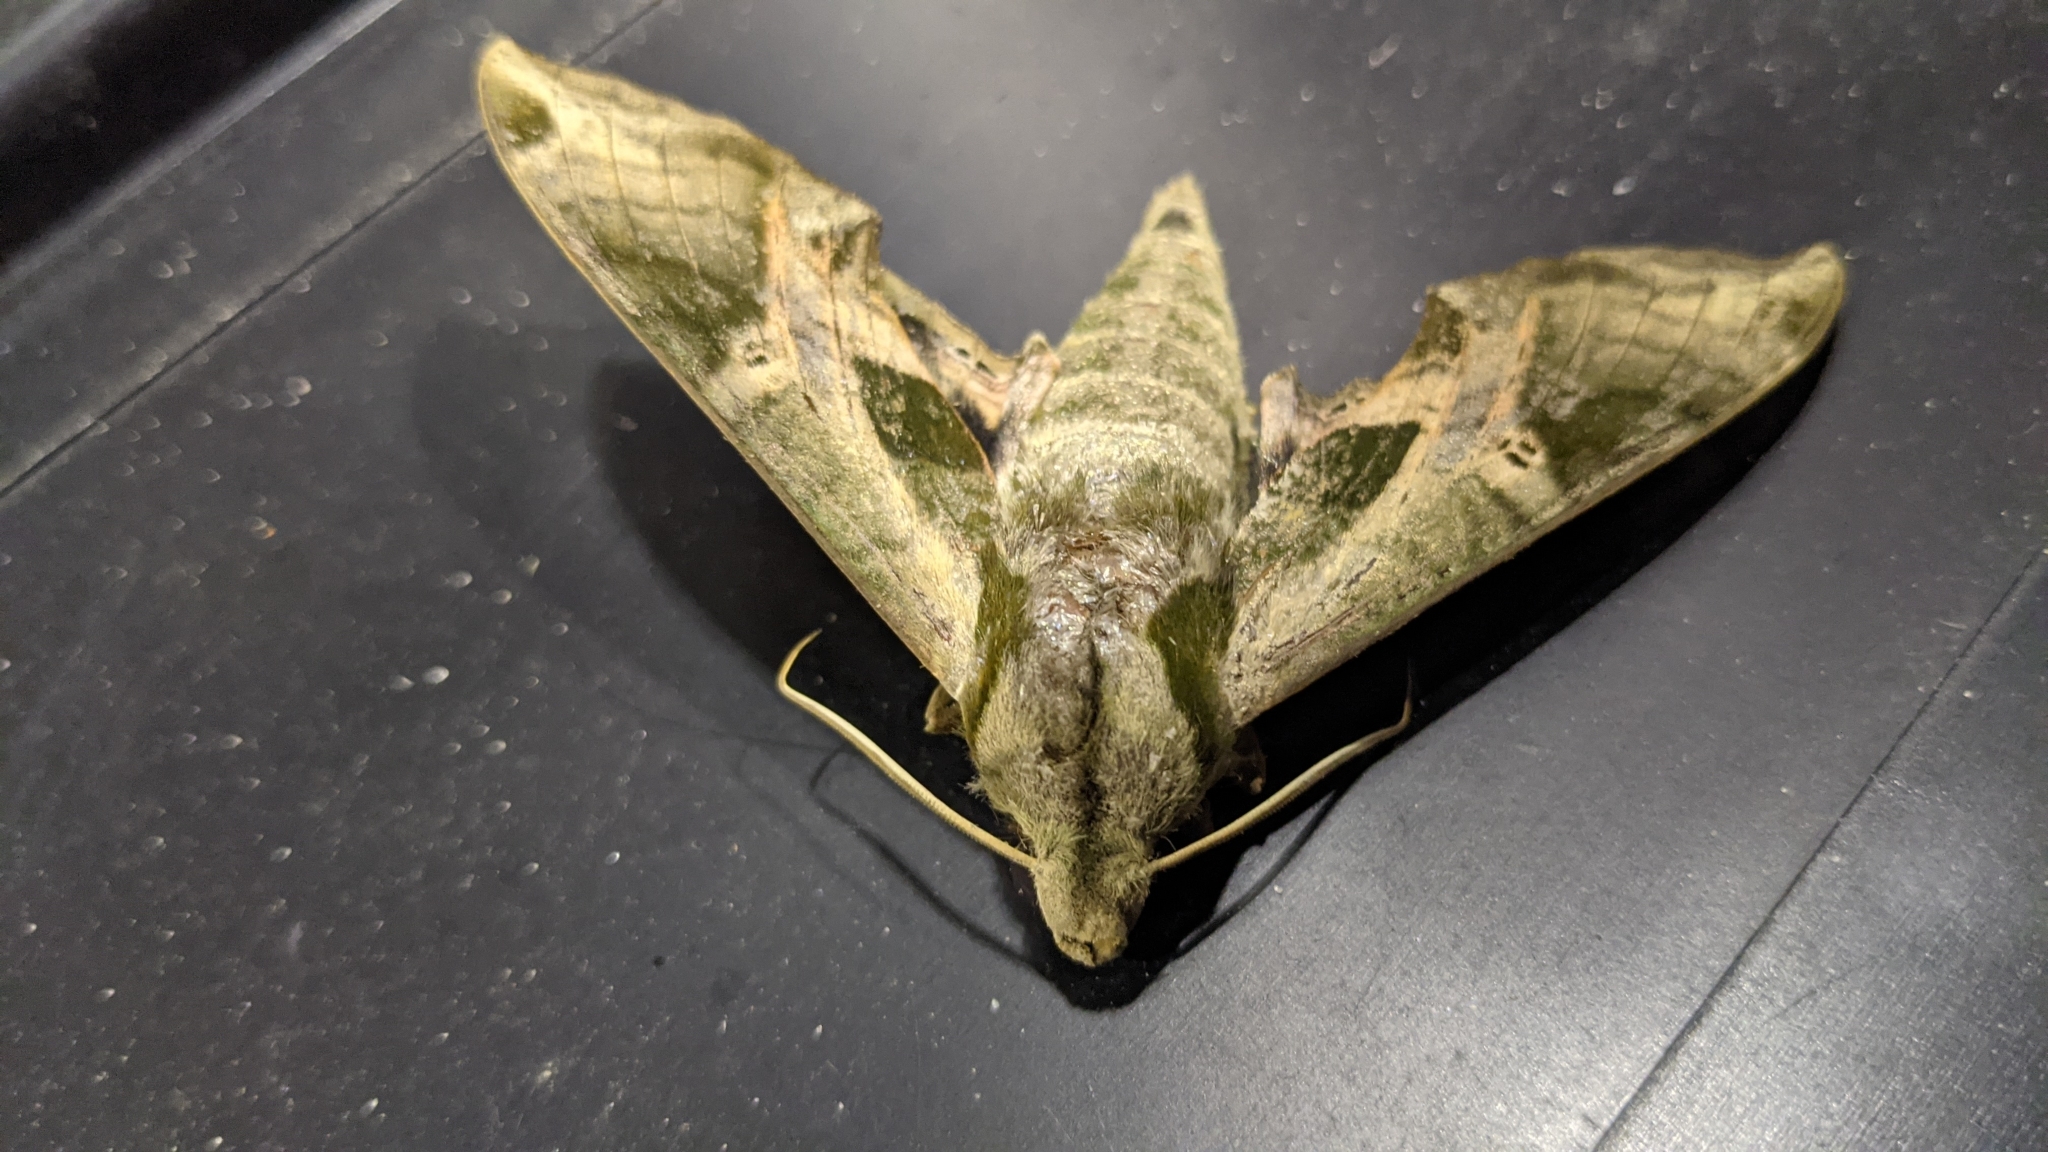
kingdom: Animalia
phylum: Arthropoda
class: Insecta
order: Lepidoptera
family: Sphingidae
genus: Eumorpha
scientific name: Eumorpha pandorus
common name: Pandora sphinx
